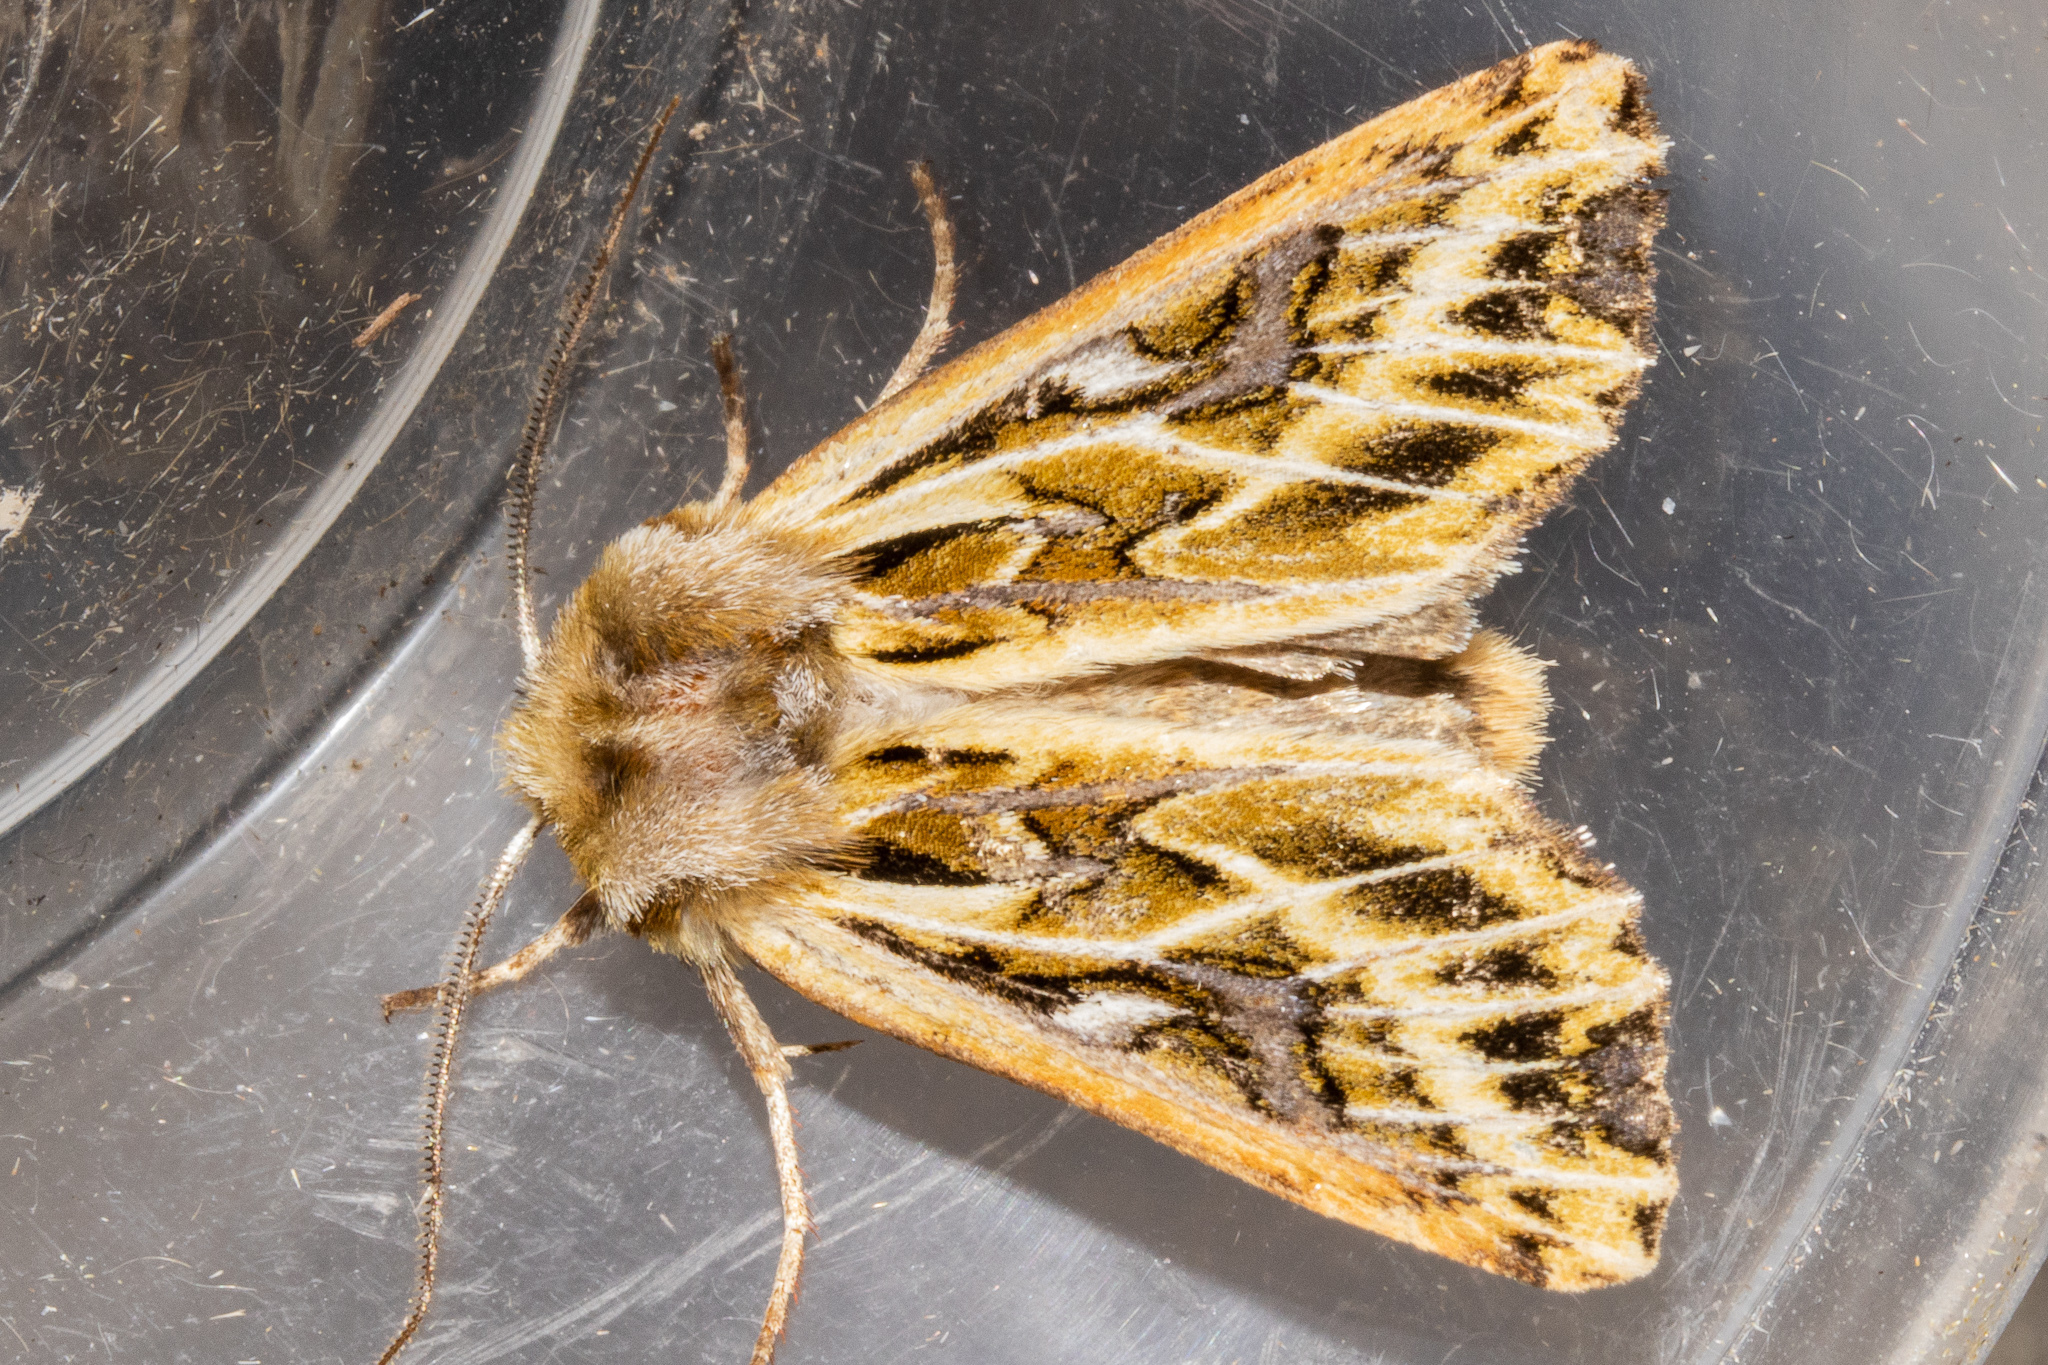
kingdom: Animalia
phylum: Arthropoda
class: Insecta
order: Lepidoptera
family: Noctuidae
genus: Ichneutica
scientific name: Ichneutica
